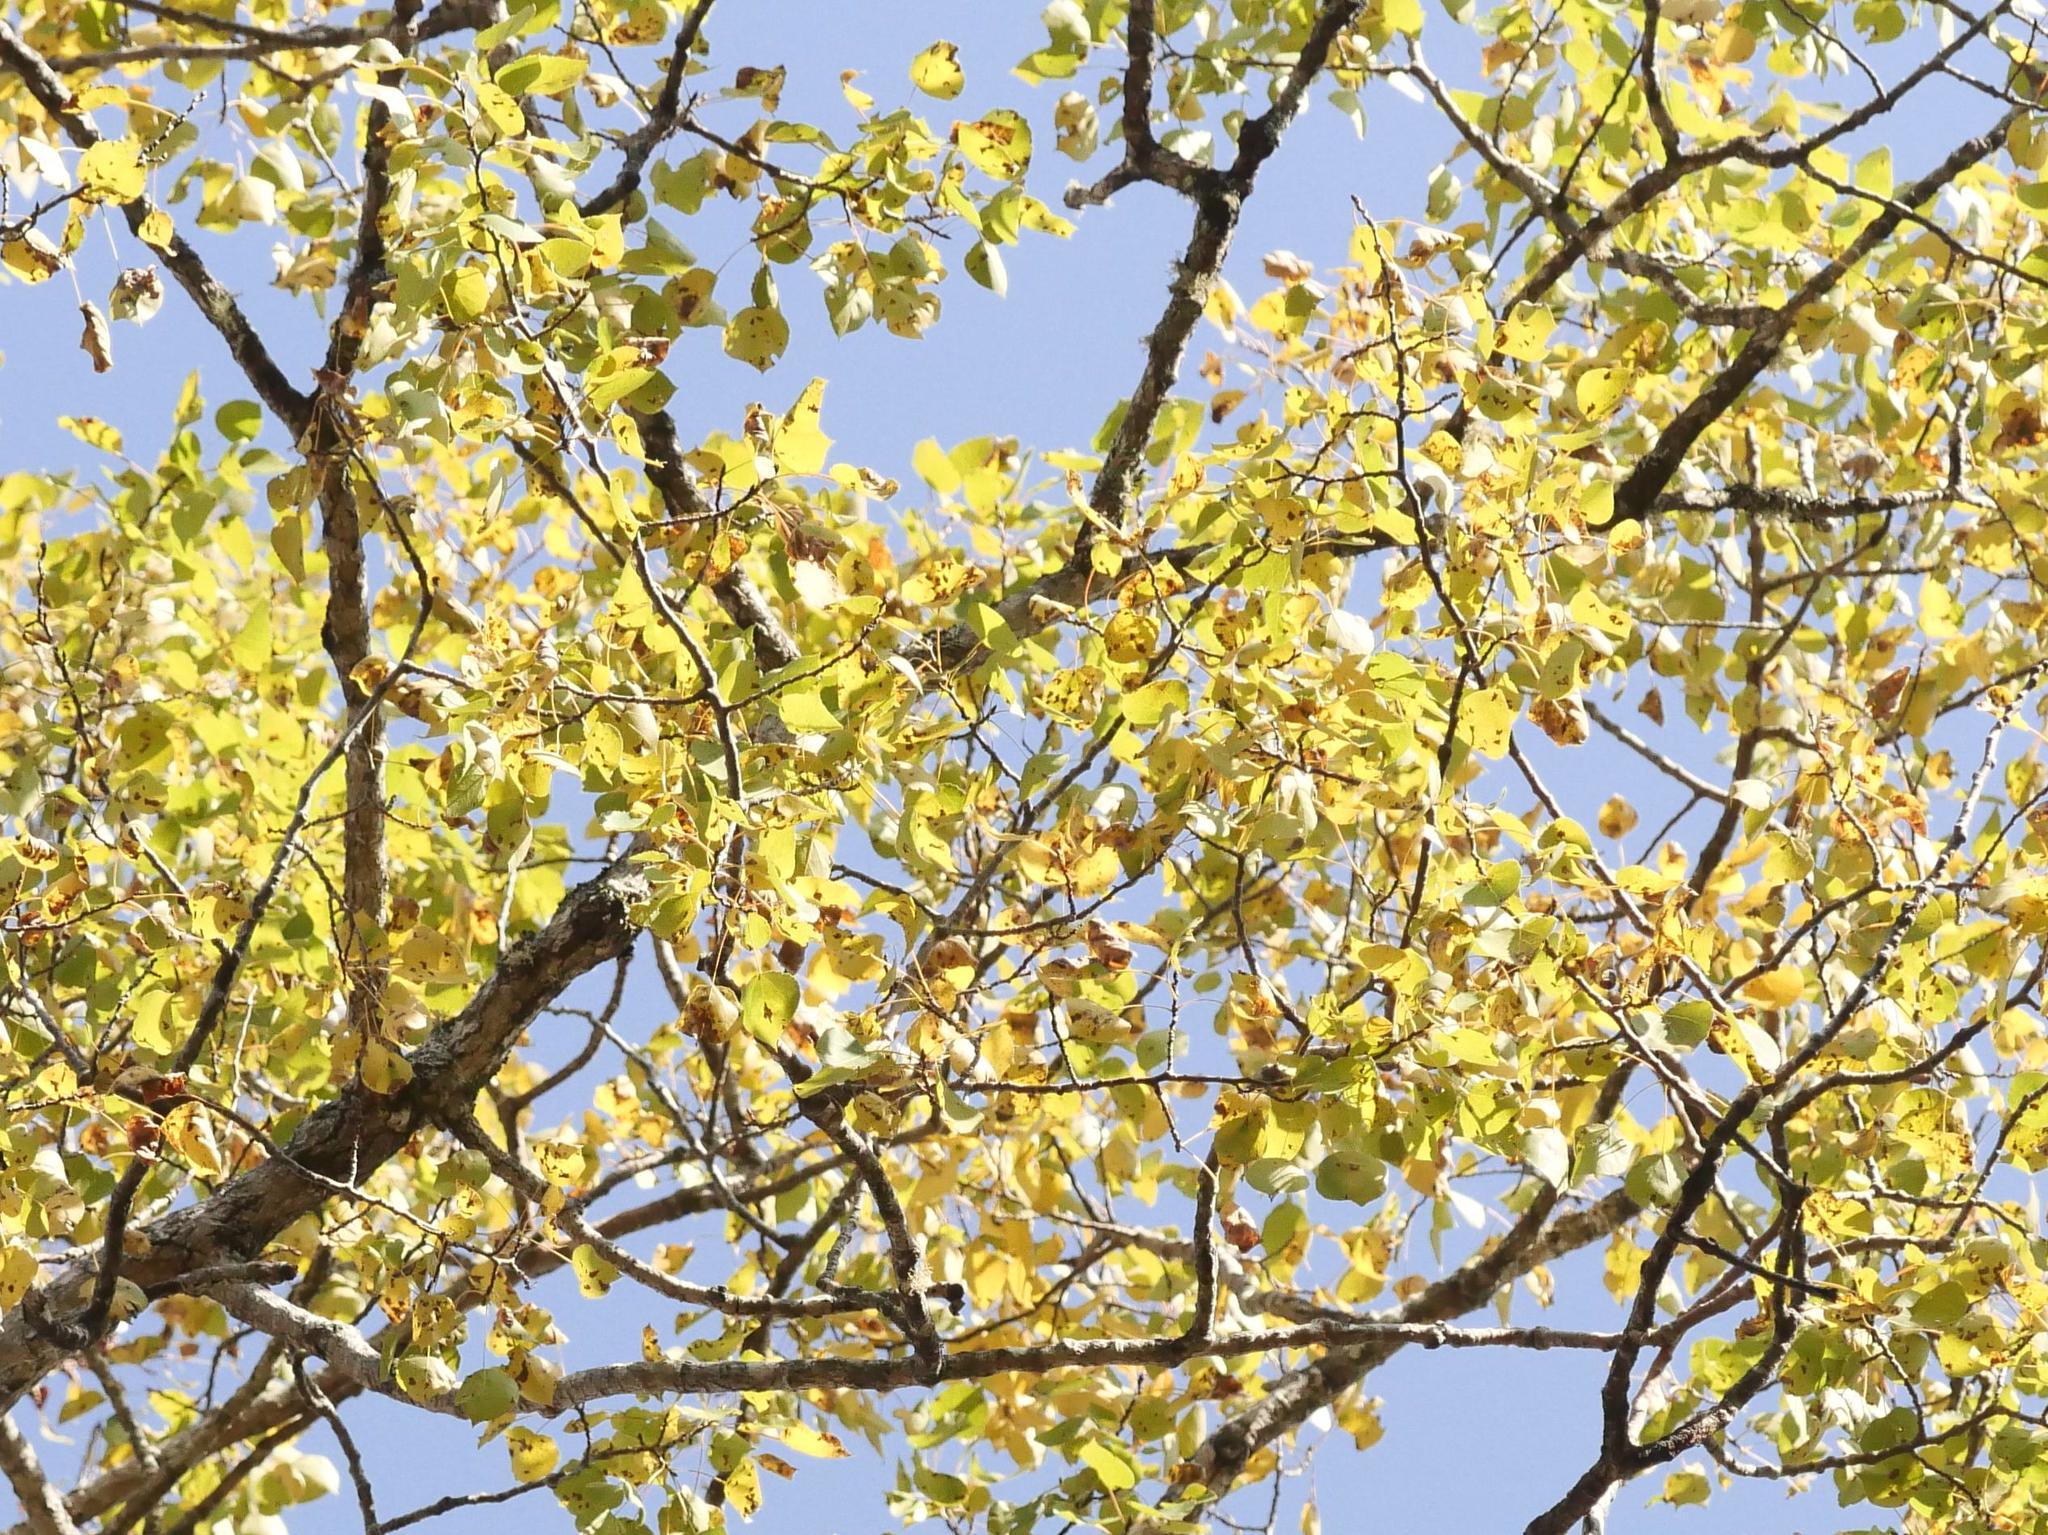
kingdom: Plantae
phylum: Tracheophyta
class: Magnoliopsida
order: Malpighiales
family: Salicaceae
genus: Populus
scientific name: Populus tremuloides
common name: Quaking aspen
